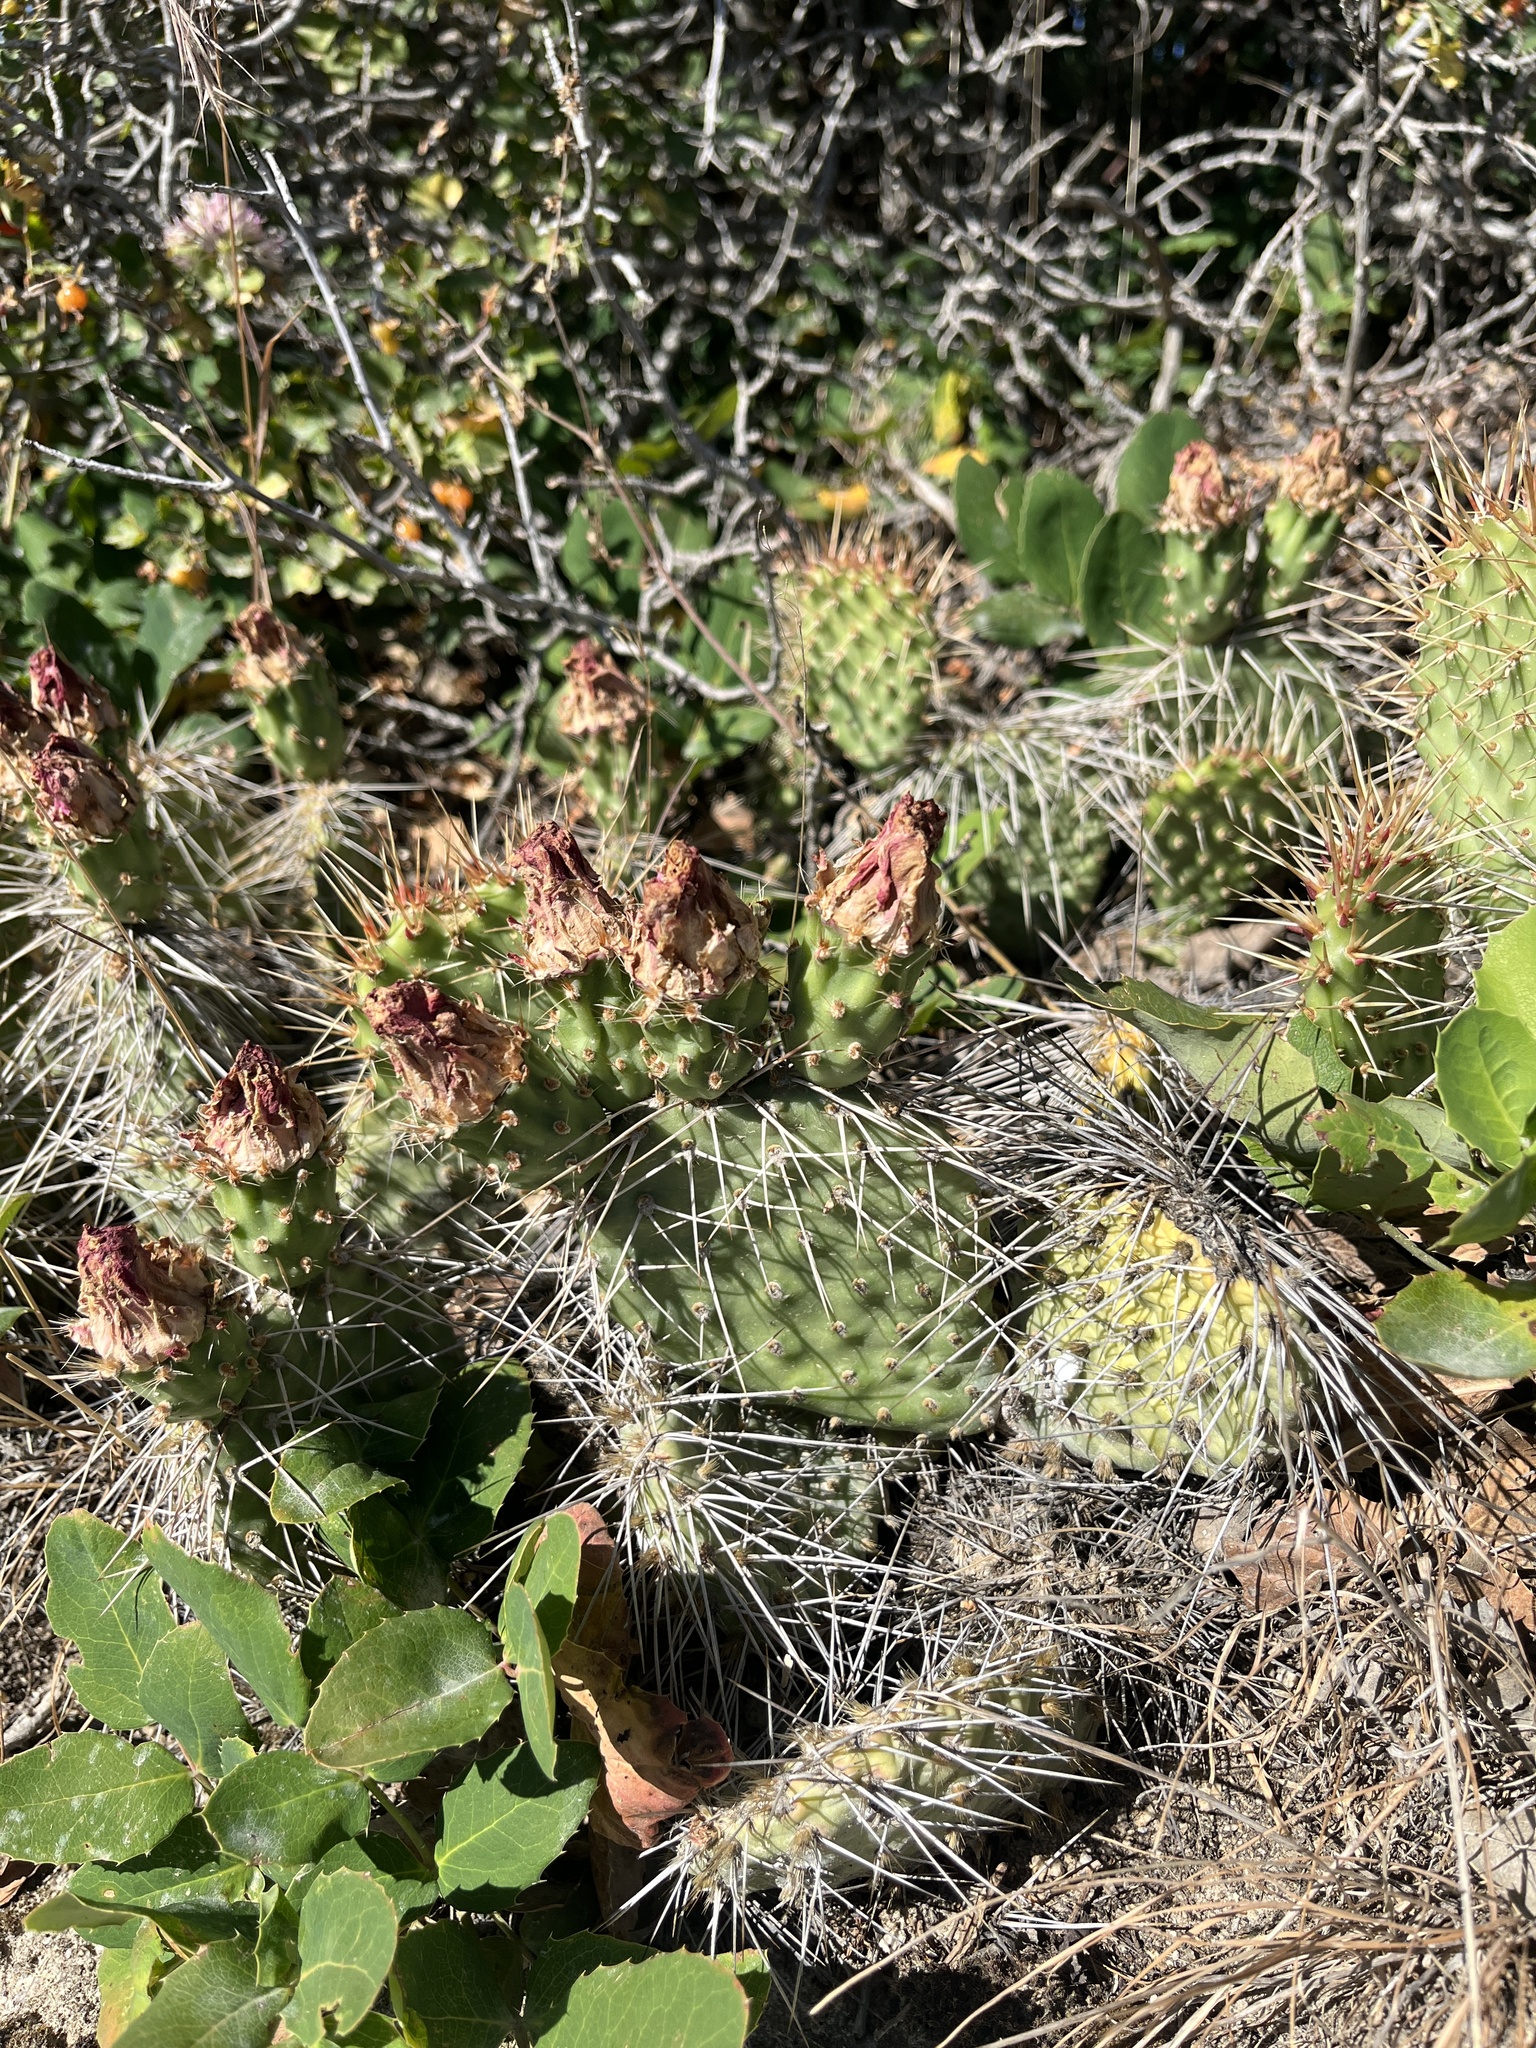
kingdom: Plantae
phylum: Tracheophyta
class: Magnoliopsida
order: Caryophyllales
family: Cactaceae
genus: Opuntia
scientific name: Opuntia polyacantha
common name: Plains prickly-pear
